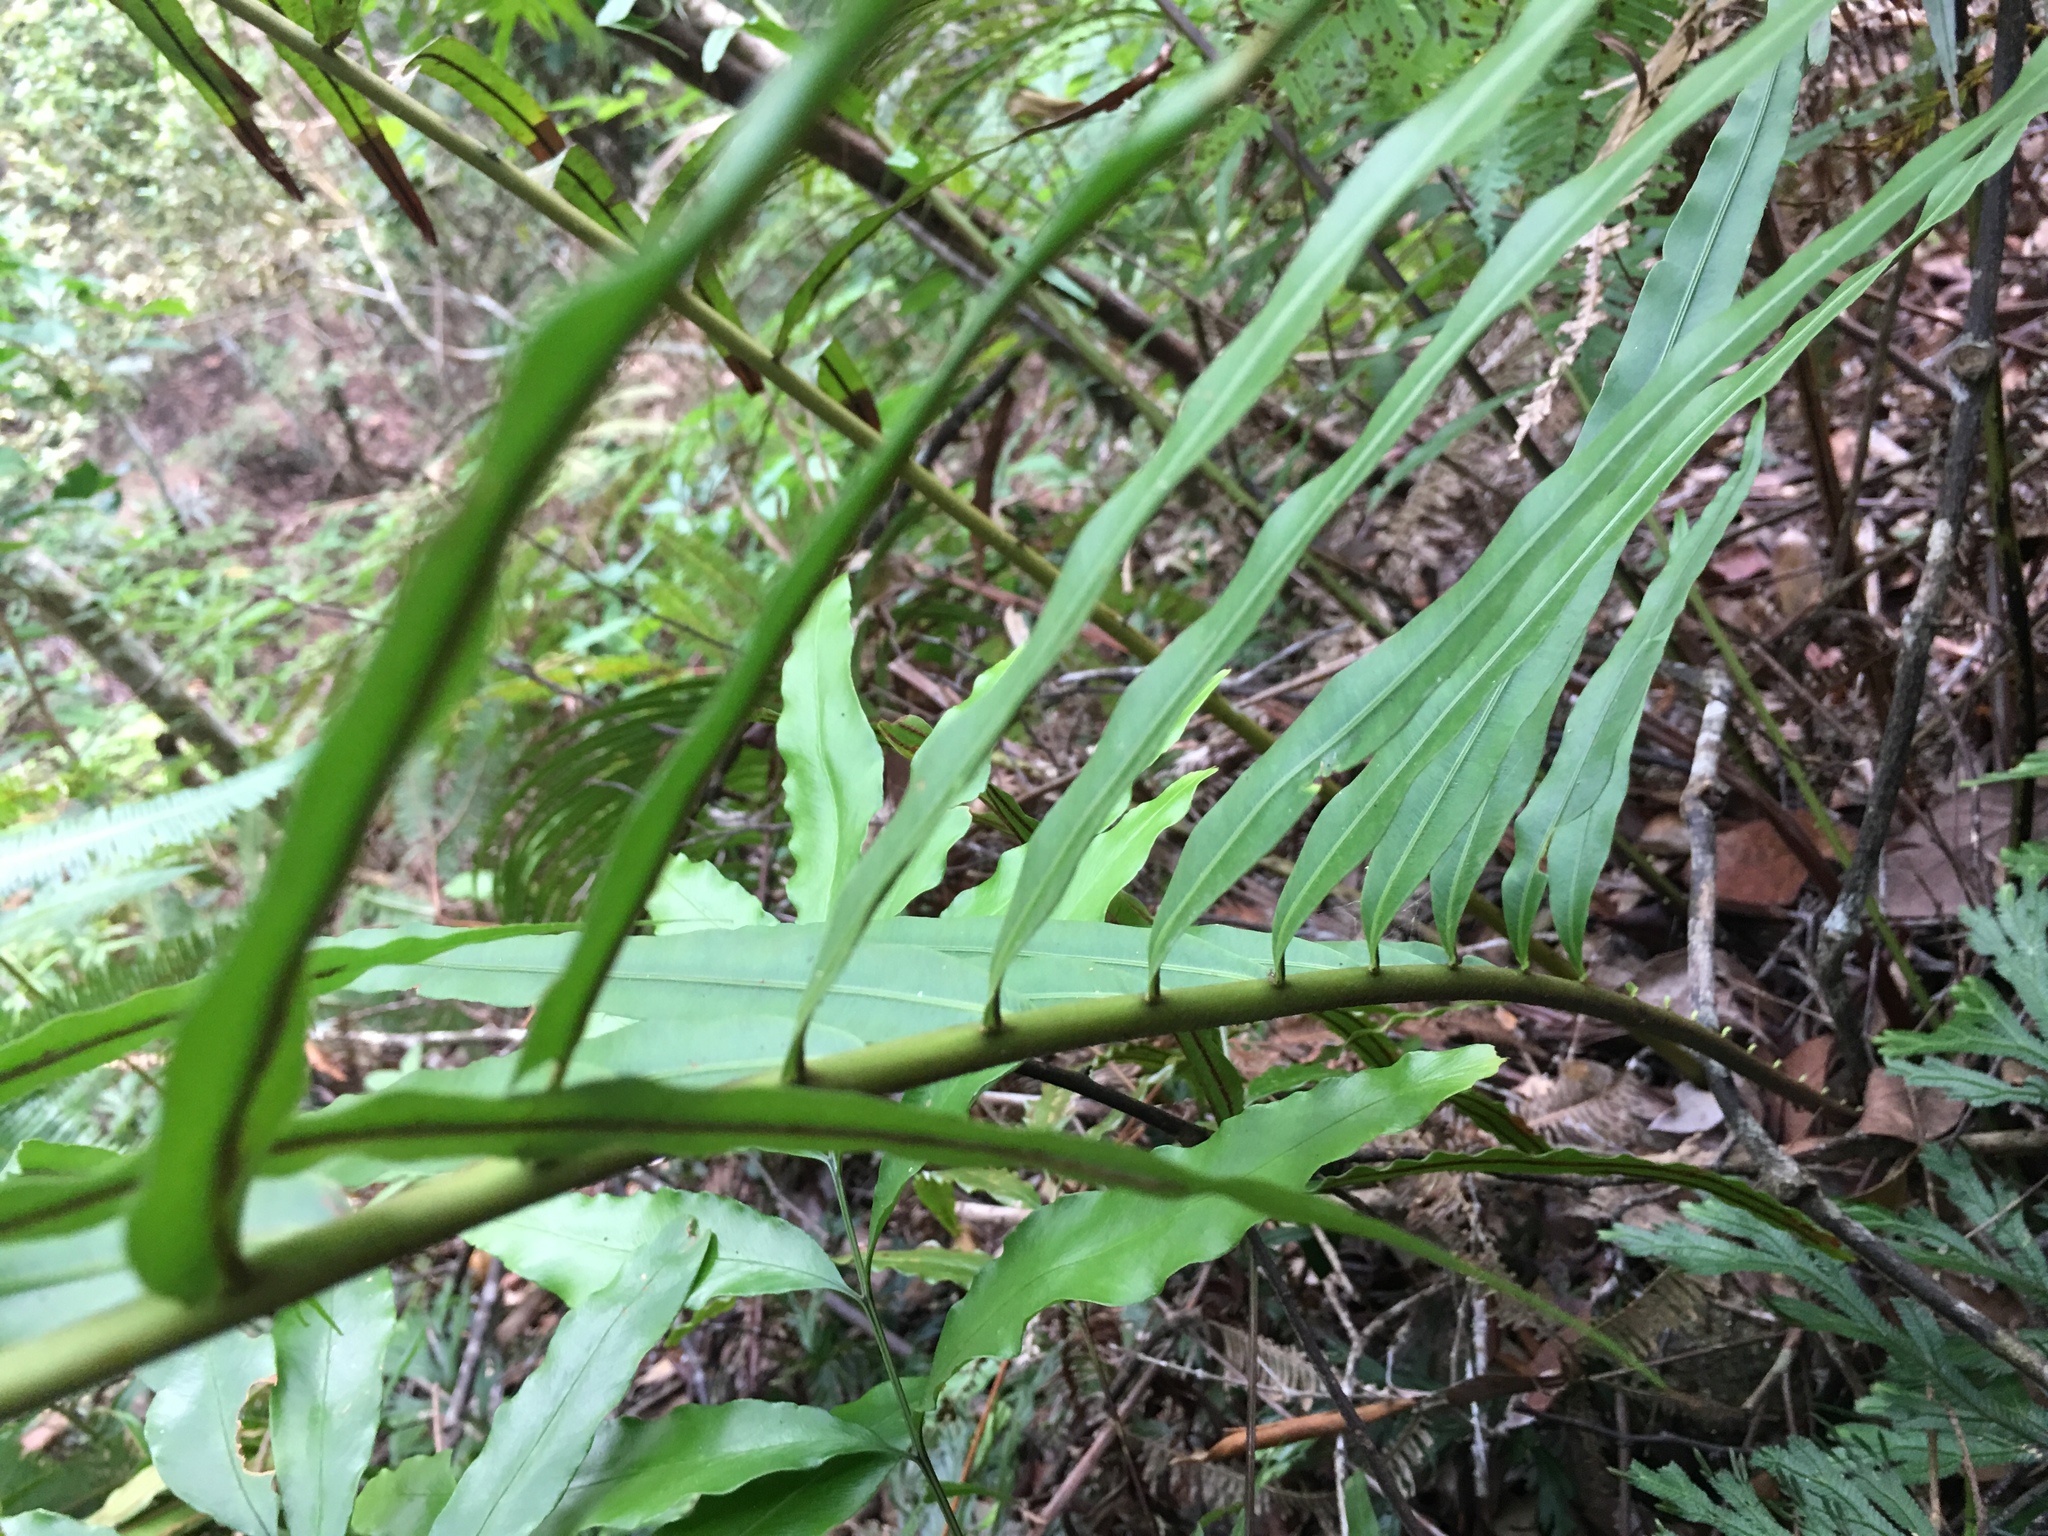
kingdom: Plantae
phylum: Tracheophyta
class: Polypodiopsida
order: Polypodiales
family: Blechnaceae
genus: Blechnopsis
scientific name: Blechnopsis orientalis
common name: Oriental blechnum
